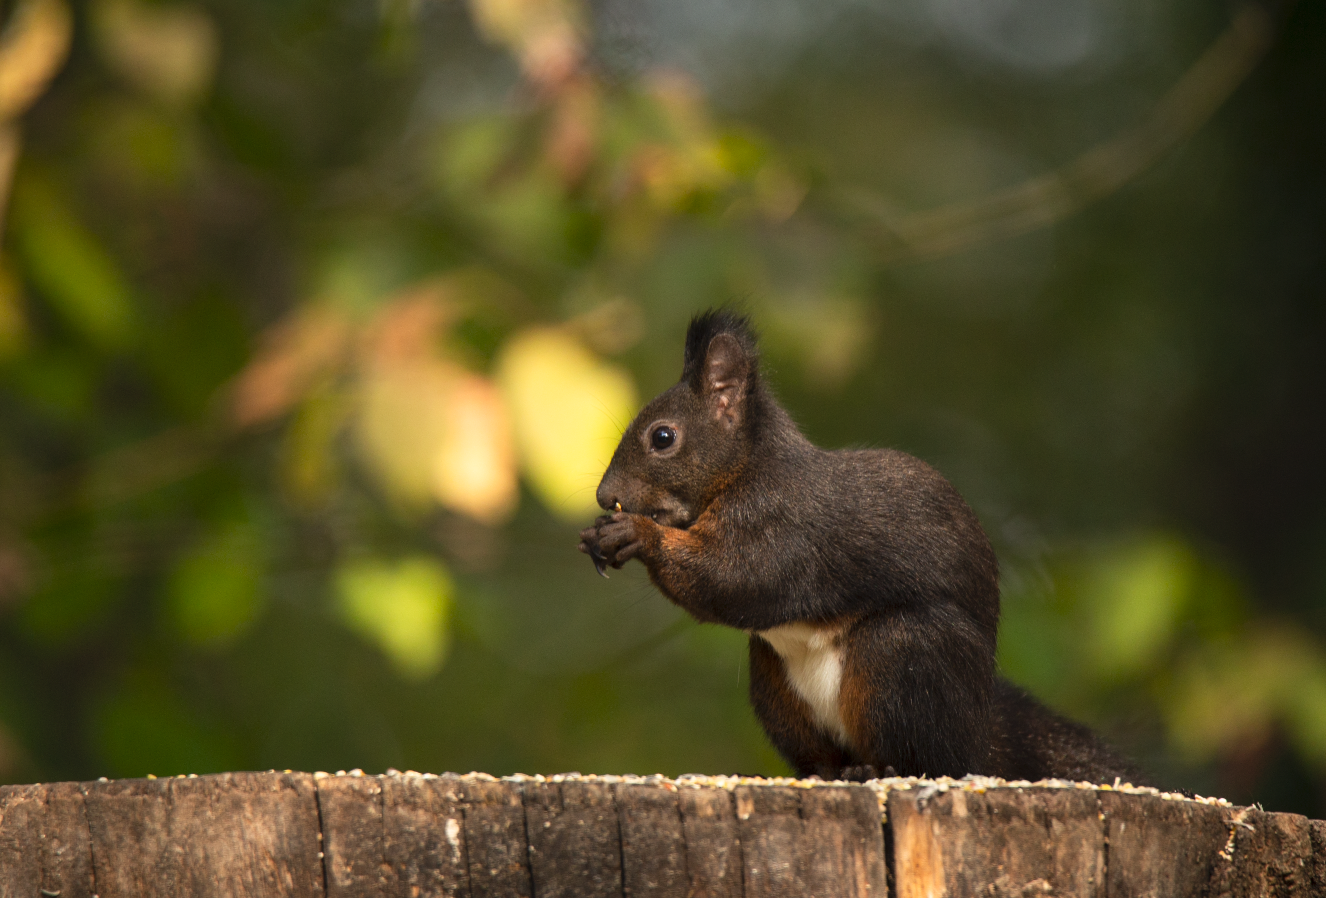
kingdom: Animalia
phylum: Chordata
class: Mammalia
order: Rodentia
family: Sciuridae
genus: Sciurus
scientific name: Sciurus vulgaris
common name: Eurasian red squirrel
